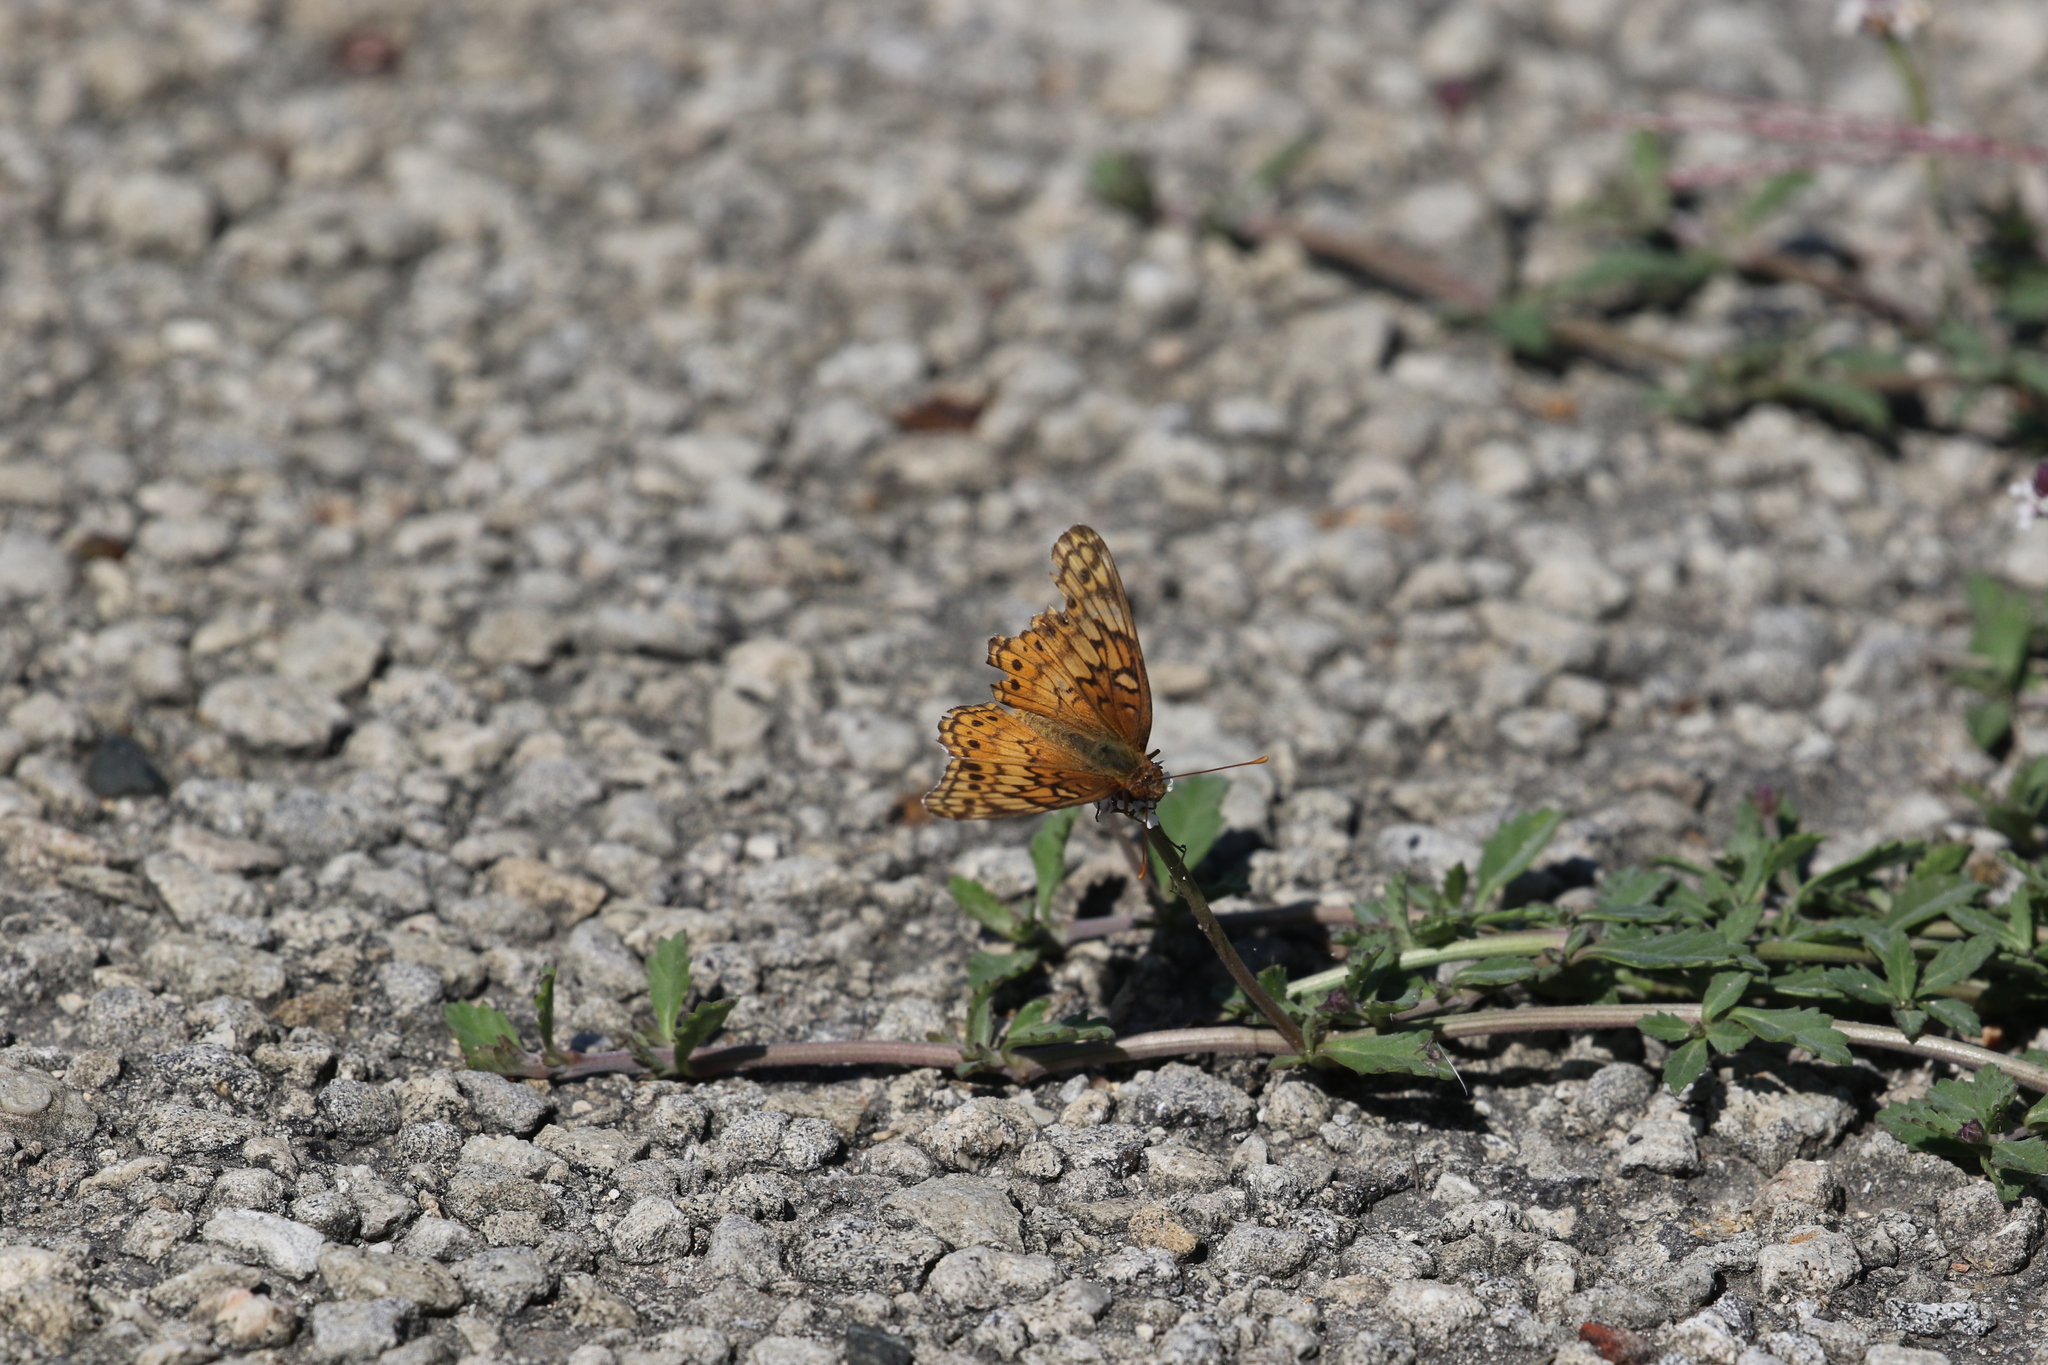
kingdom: Animalia
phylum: Arthropoda
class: Insecta
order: Lepidoptera
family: Nymphalidae
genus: Euptoieta
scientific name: Euptoieta claudia
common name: Variegated fritillary
